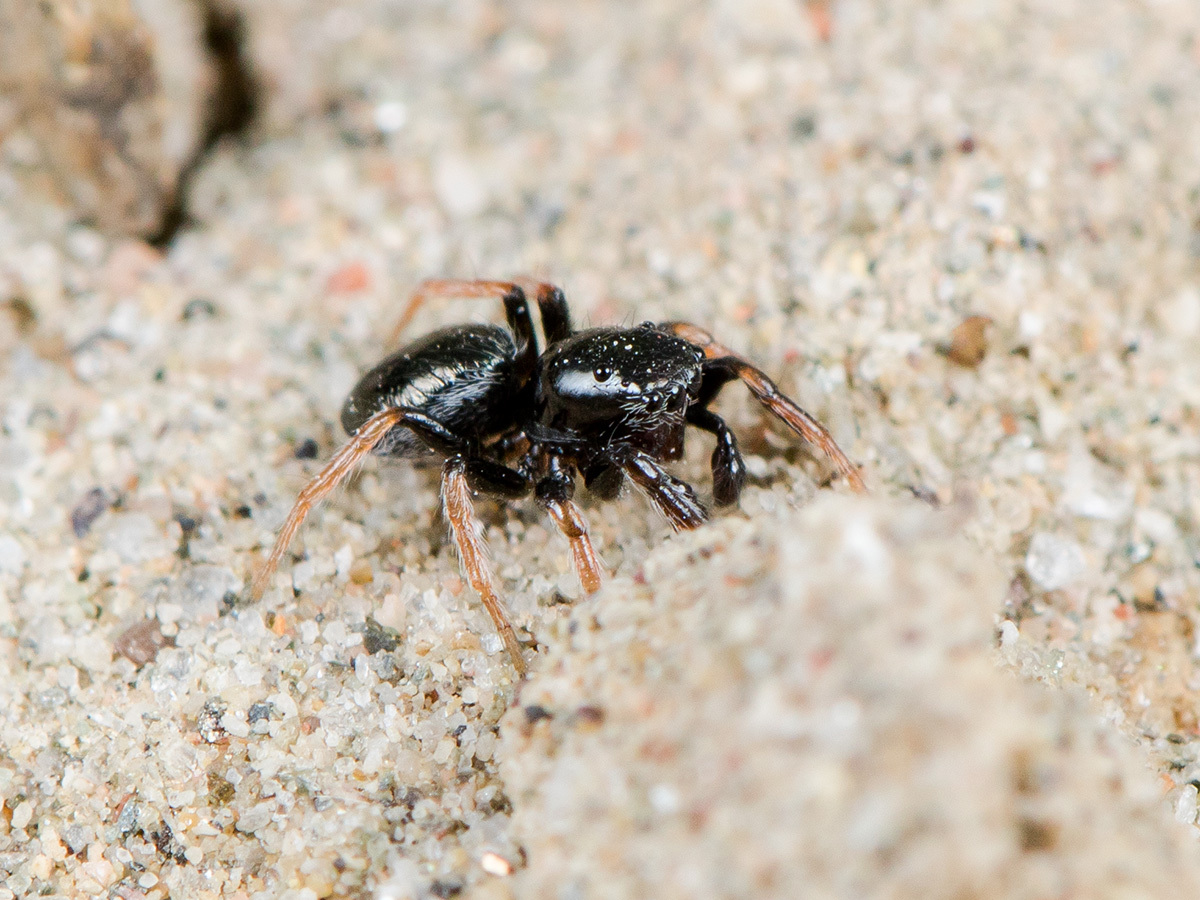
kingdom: Animalia
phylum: Arthropoda
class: Arachnida
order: Araneae
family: Salticidae
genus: Chalcoscirtus
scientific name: Chalcoscirtus karakurt
